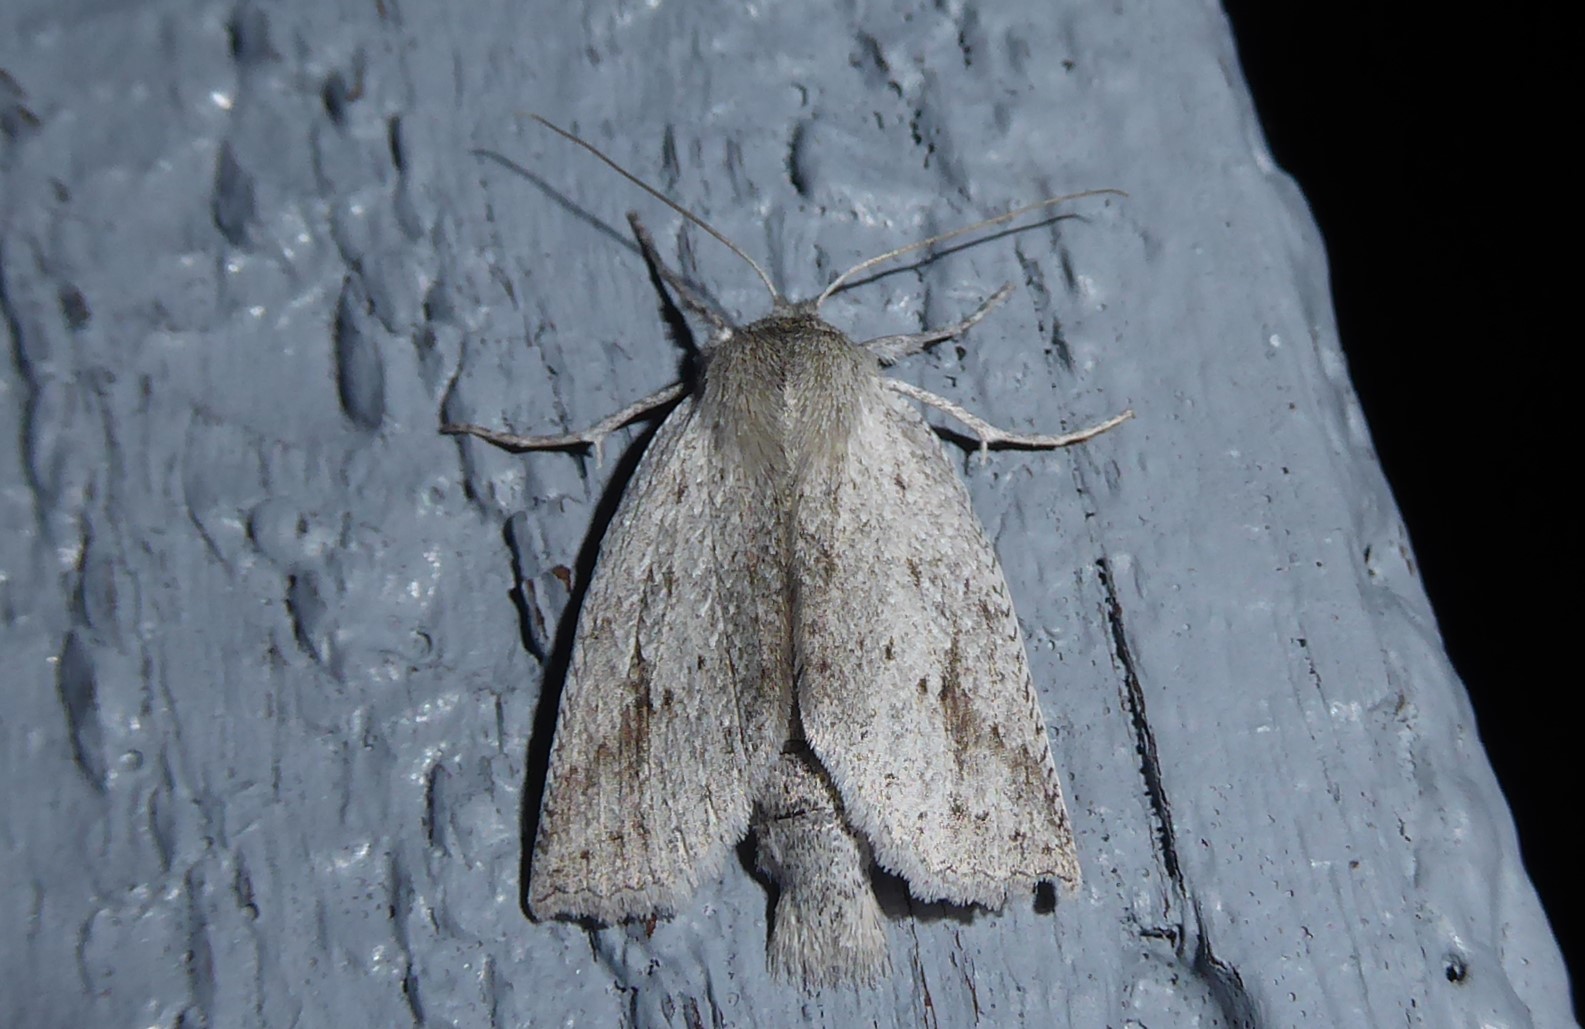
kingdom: Animalia
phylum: Arthropoda
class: Insecta
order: Lepidoptera
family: Geometridae
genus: Declana
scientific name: Declana leptomera
